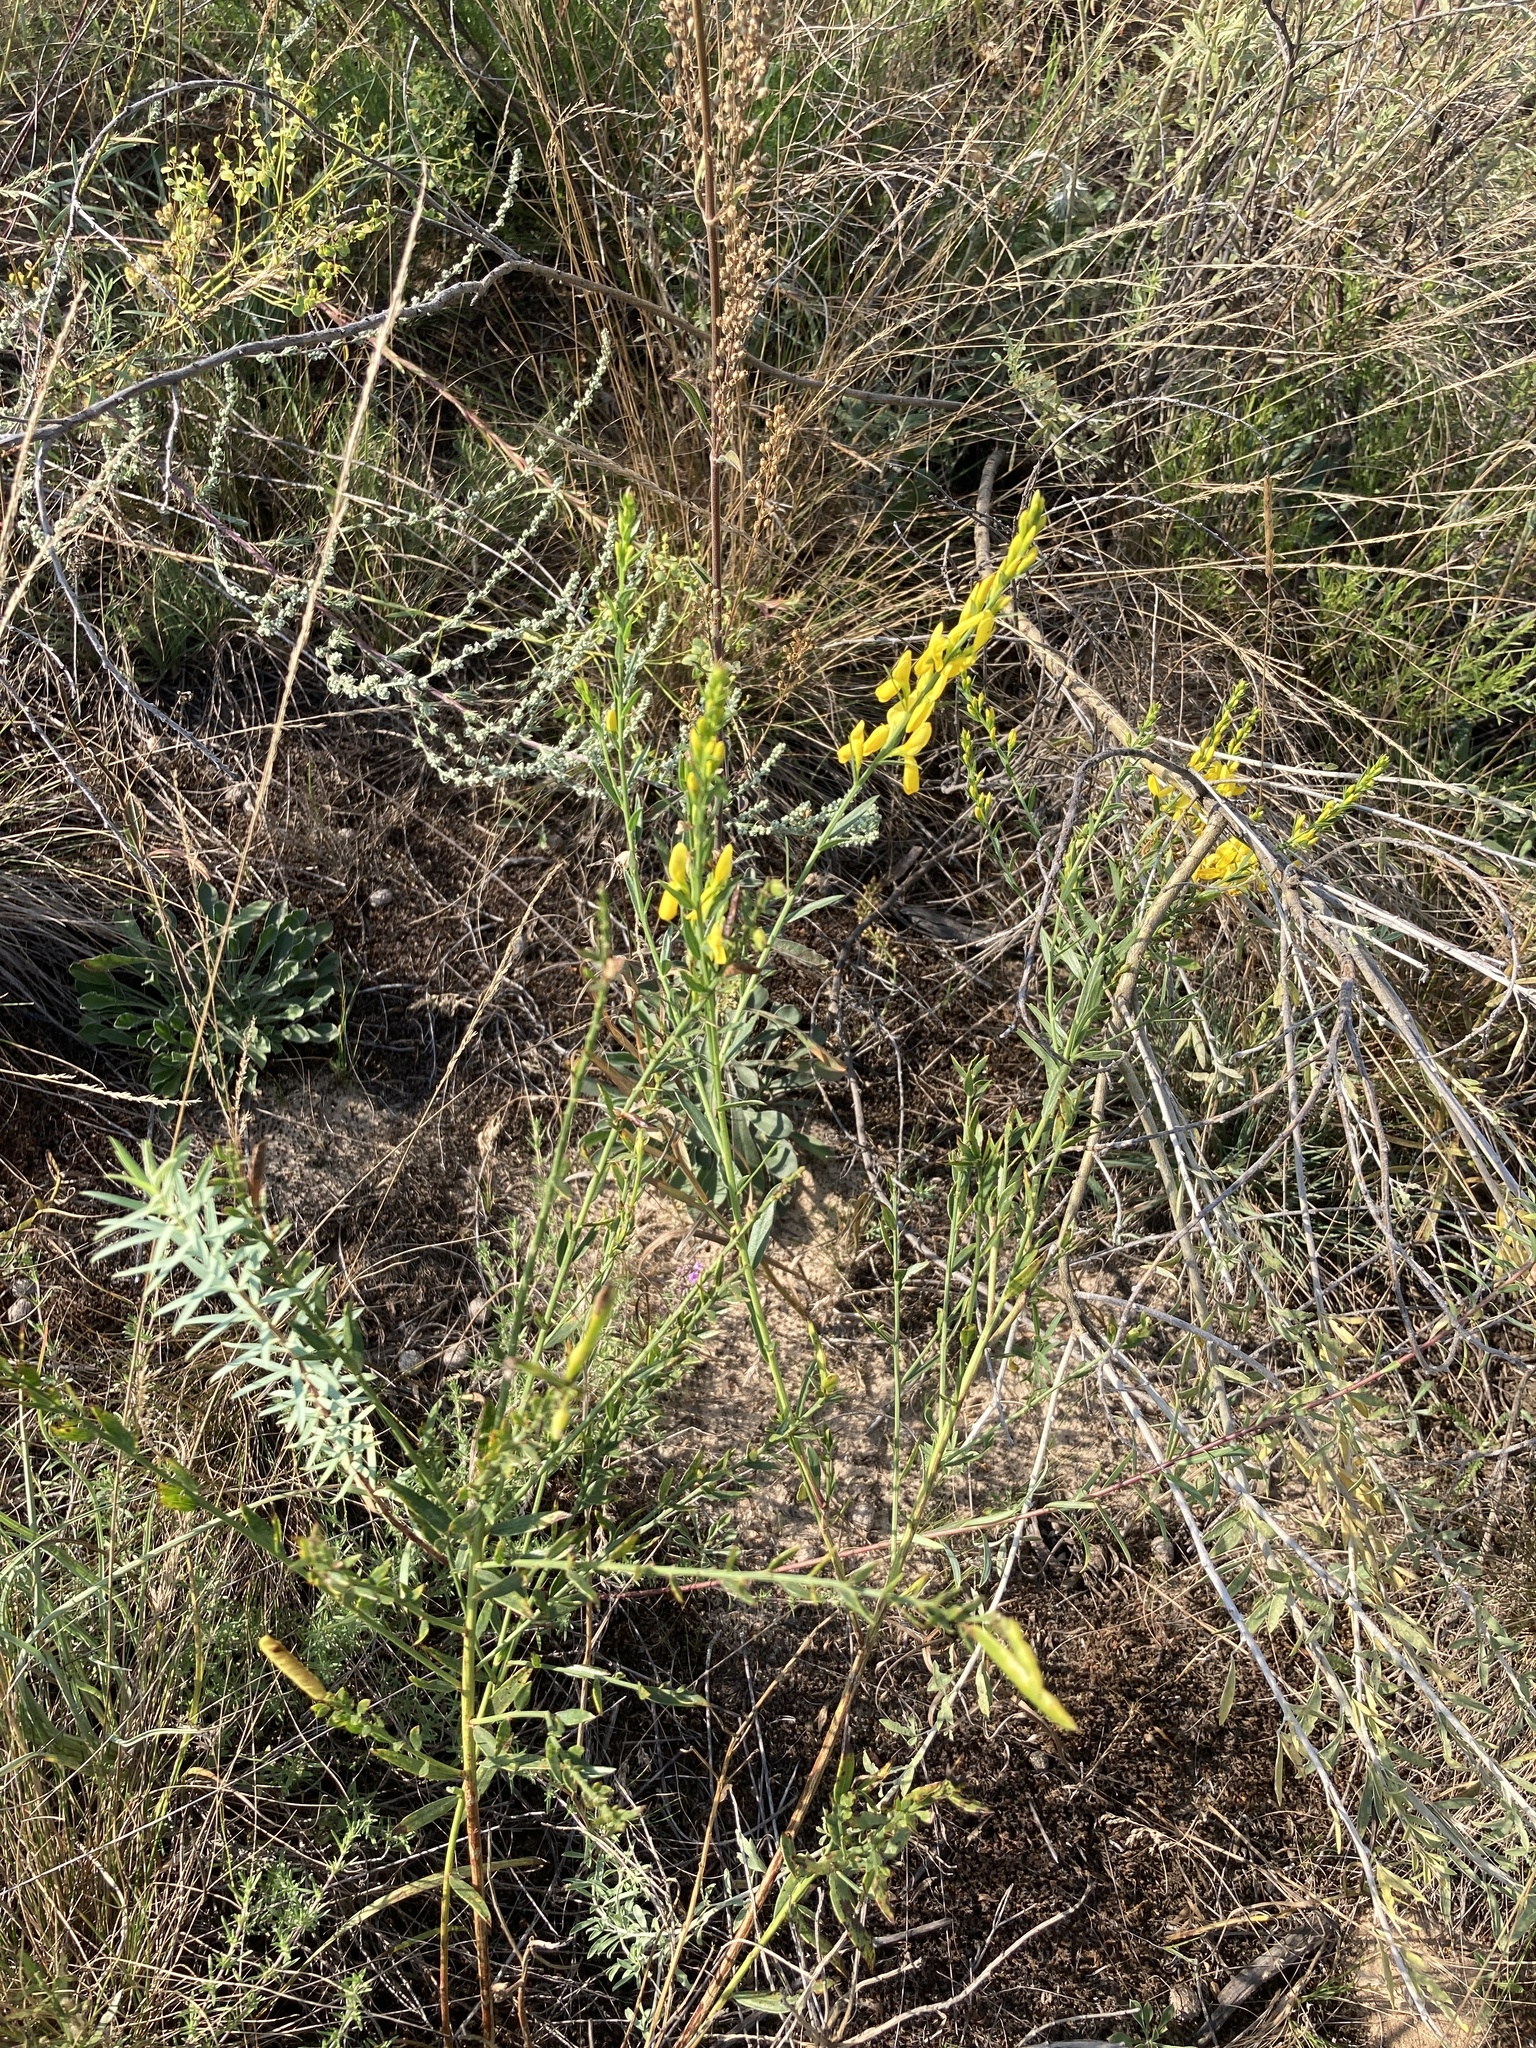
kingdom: Plantae
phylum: Tracheophyta
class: Magnoliopsida
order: Fabales
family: Fabaceae
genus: Genista
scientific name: Genista tinctoria
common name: Dyer's greenweed
